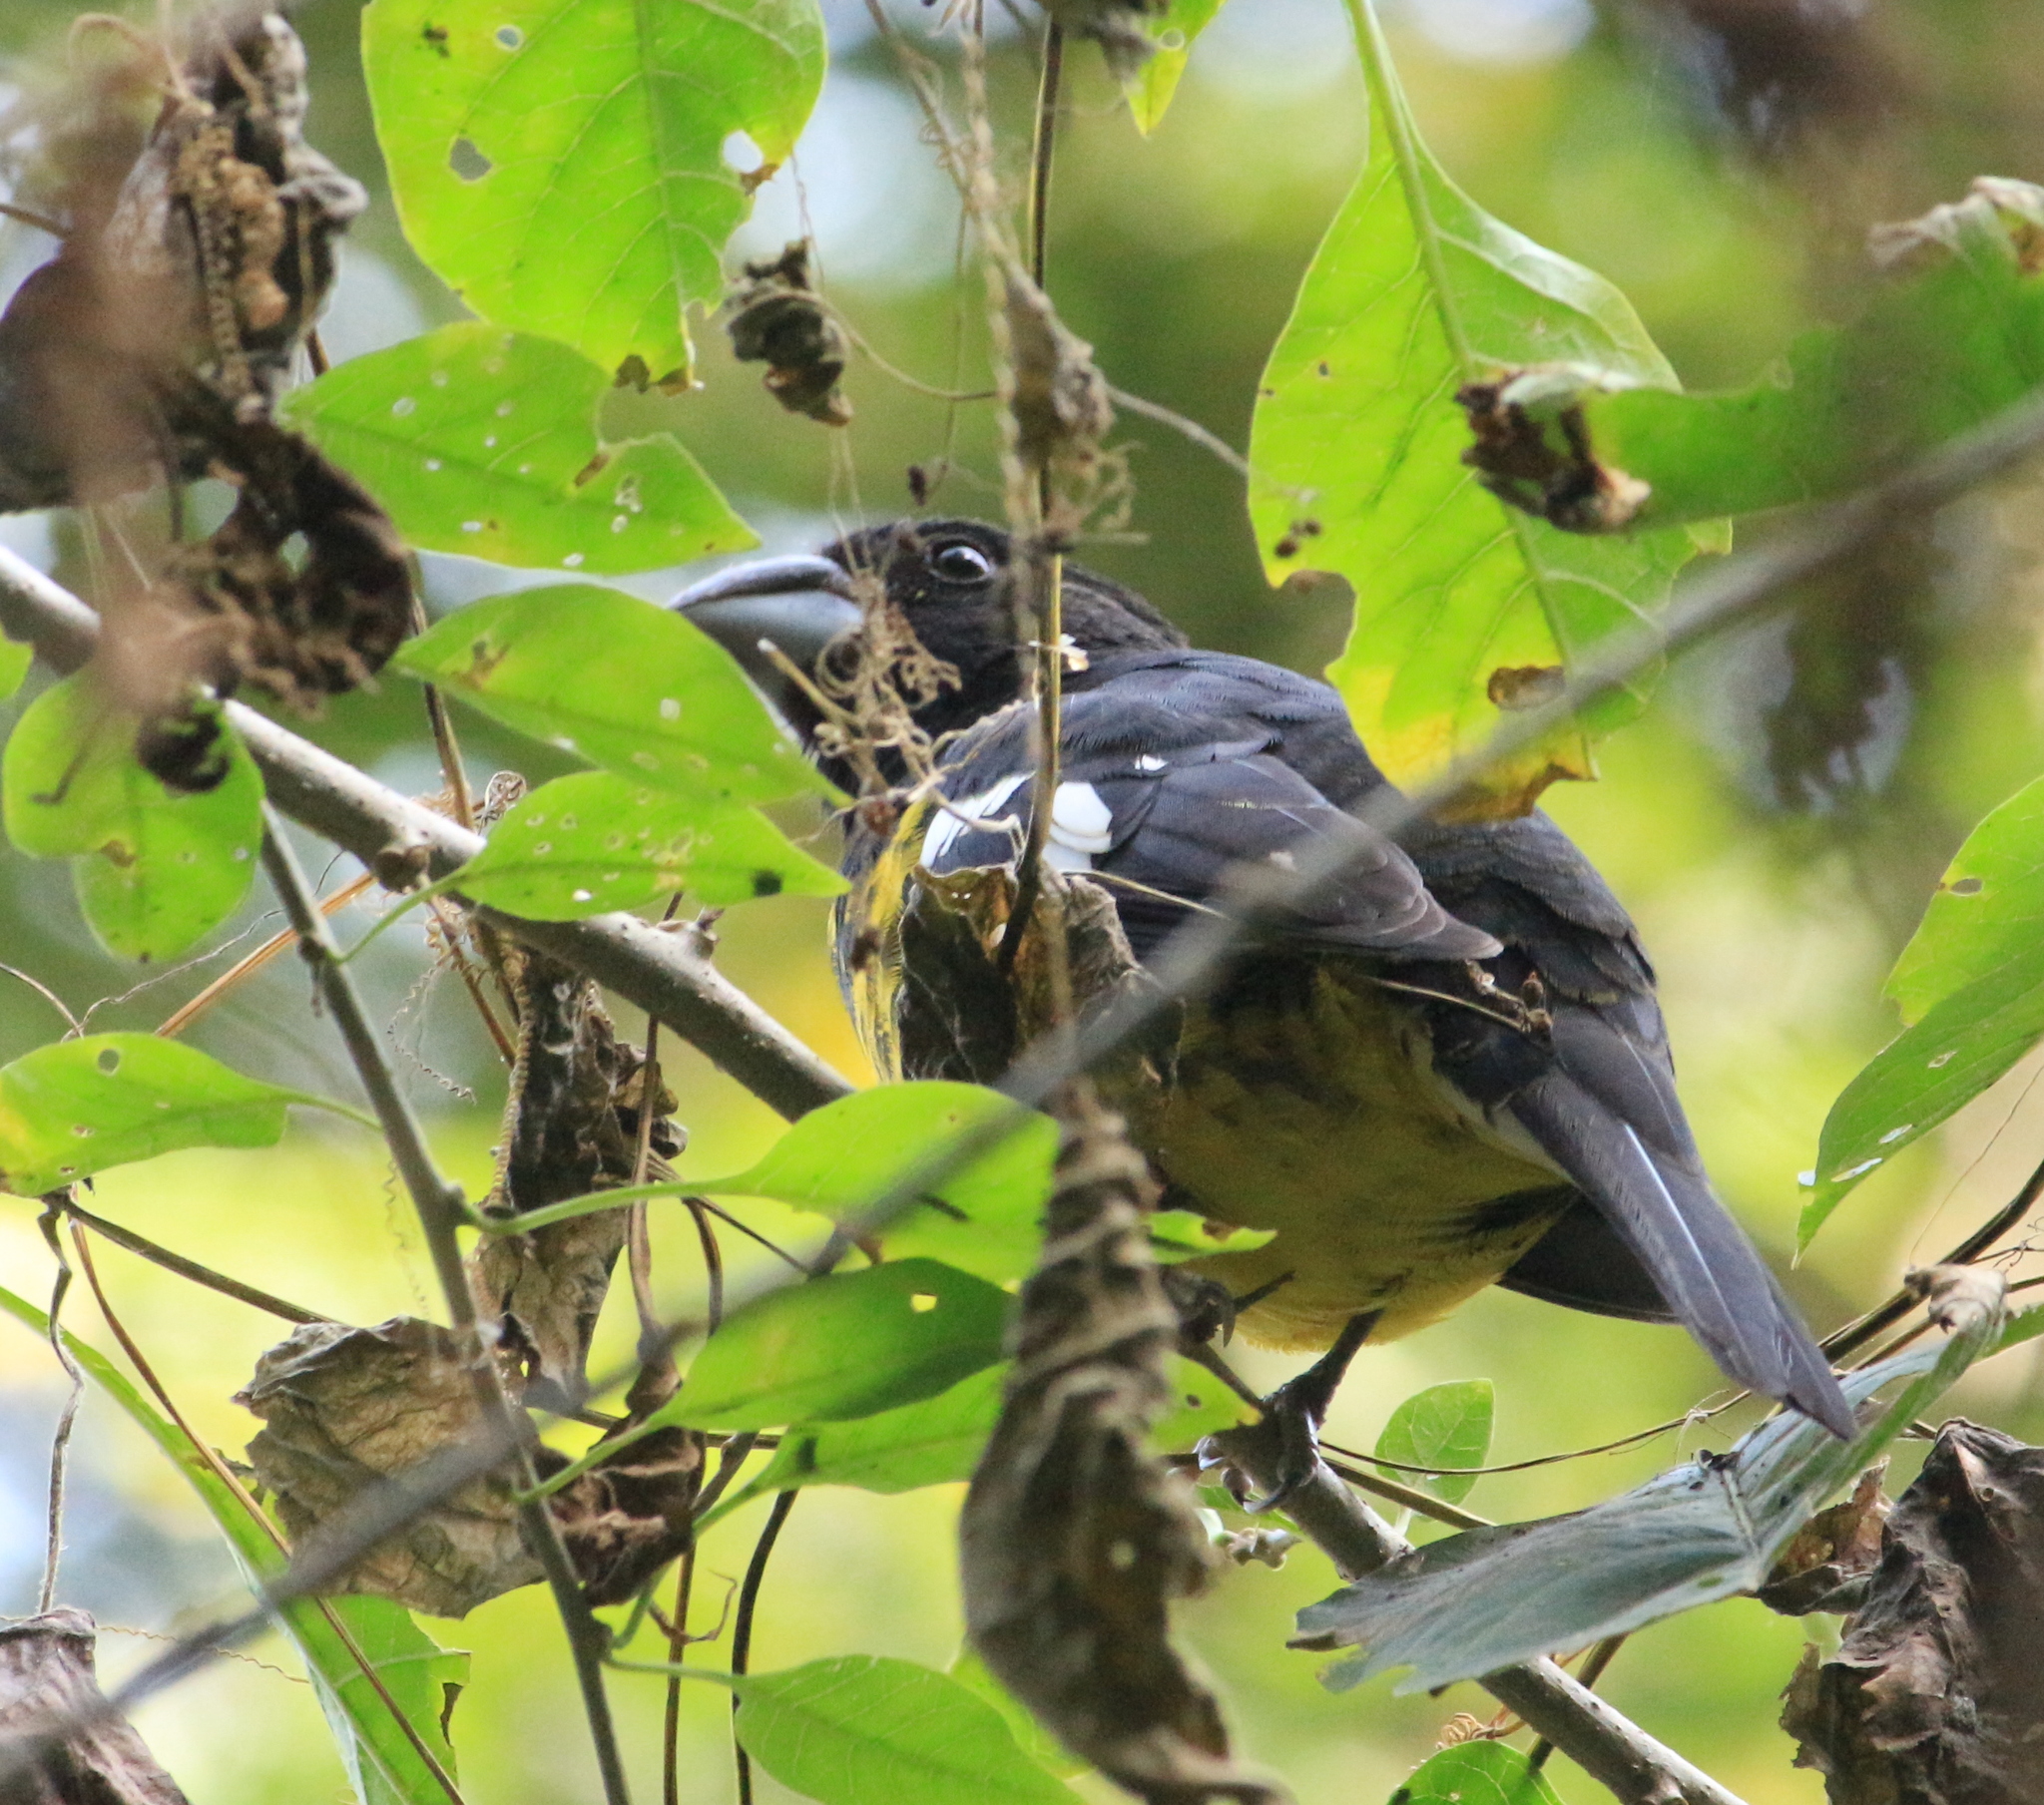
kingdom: Animalia
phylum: Chordata
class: Aves
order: Passeriformes
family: Cardinalidae
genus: Pheucticus
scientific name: Pheucticus aureoventris
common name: Black-backed grosbeak
